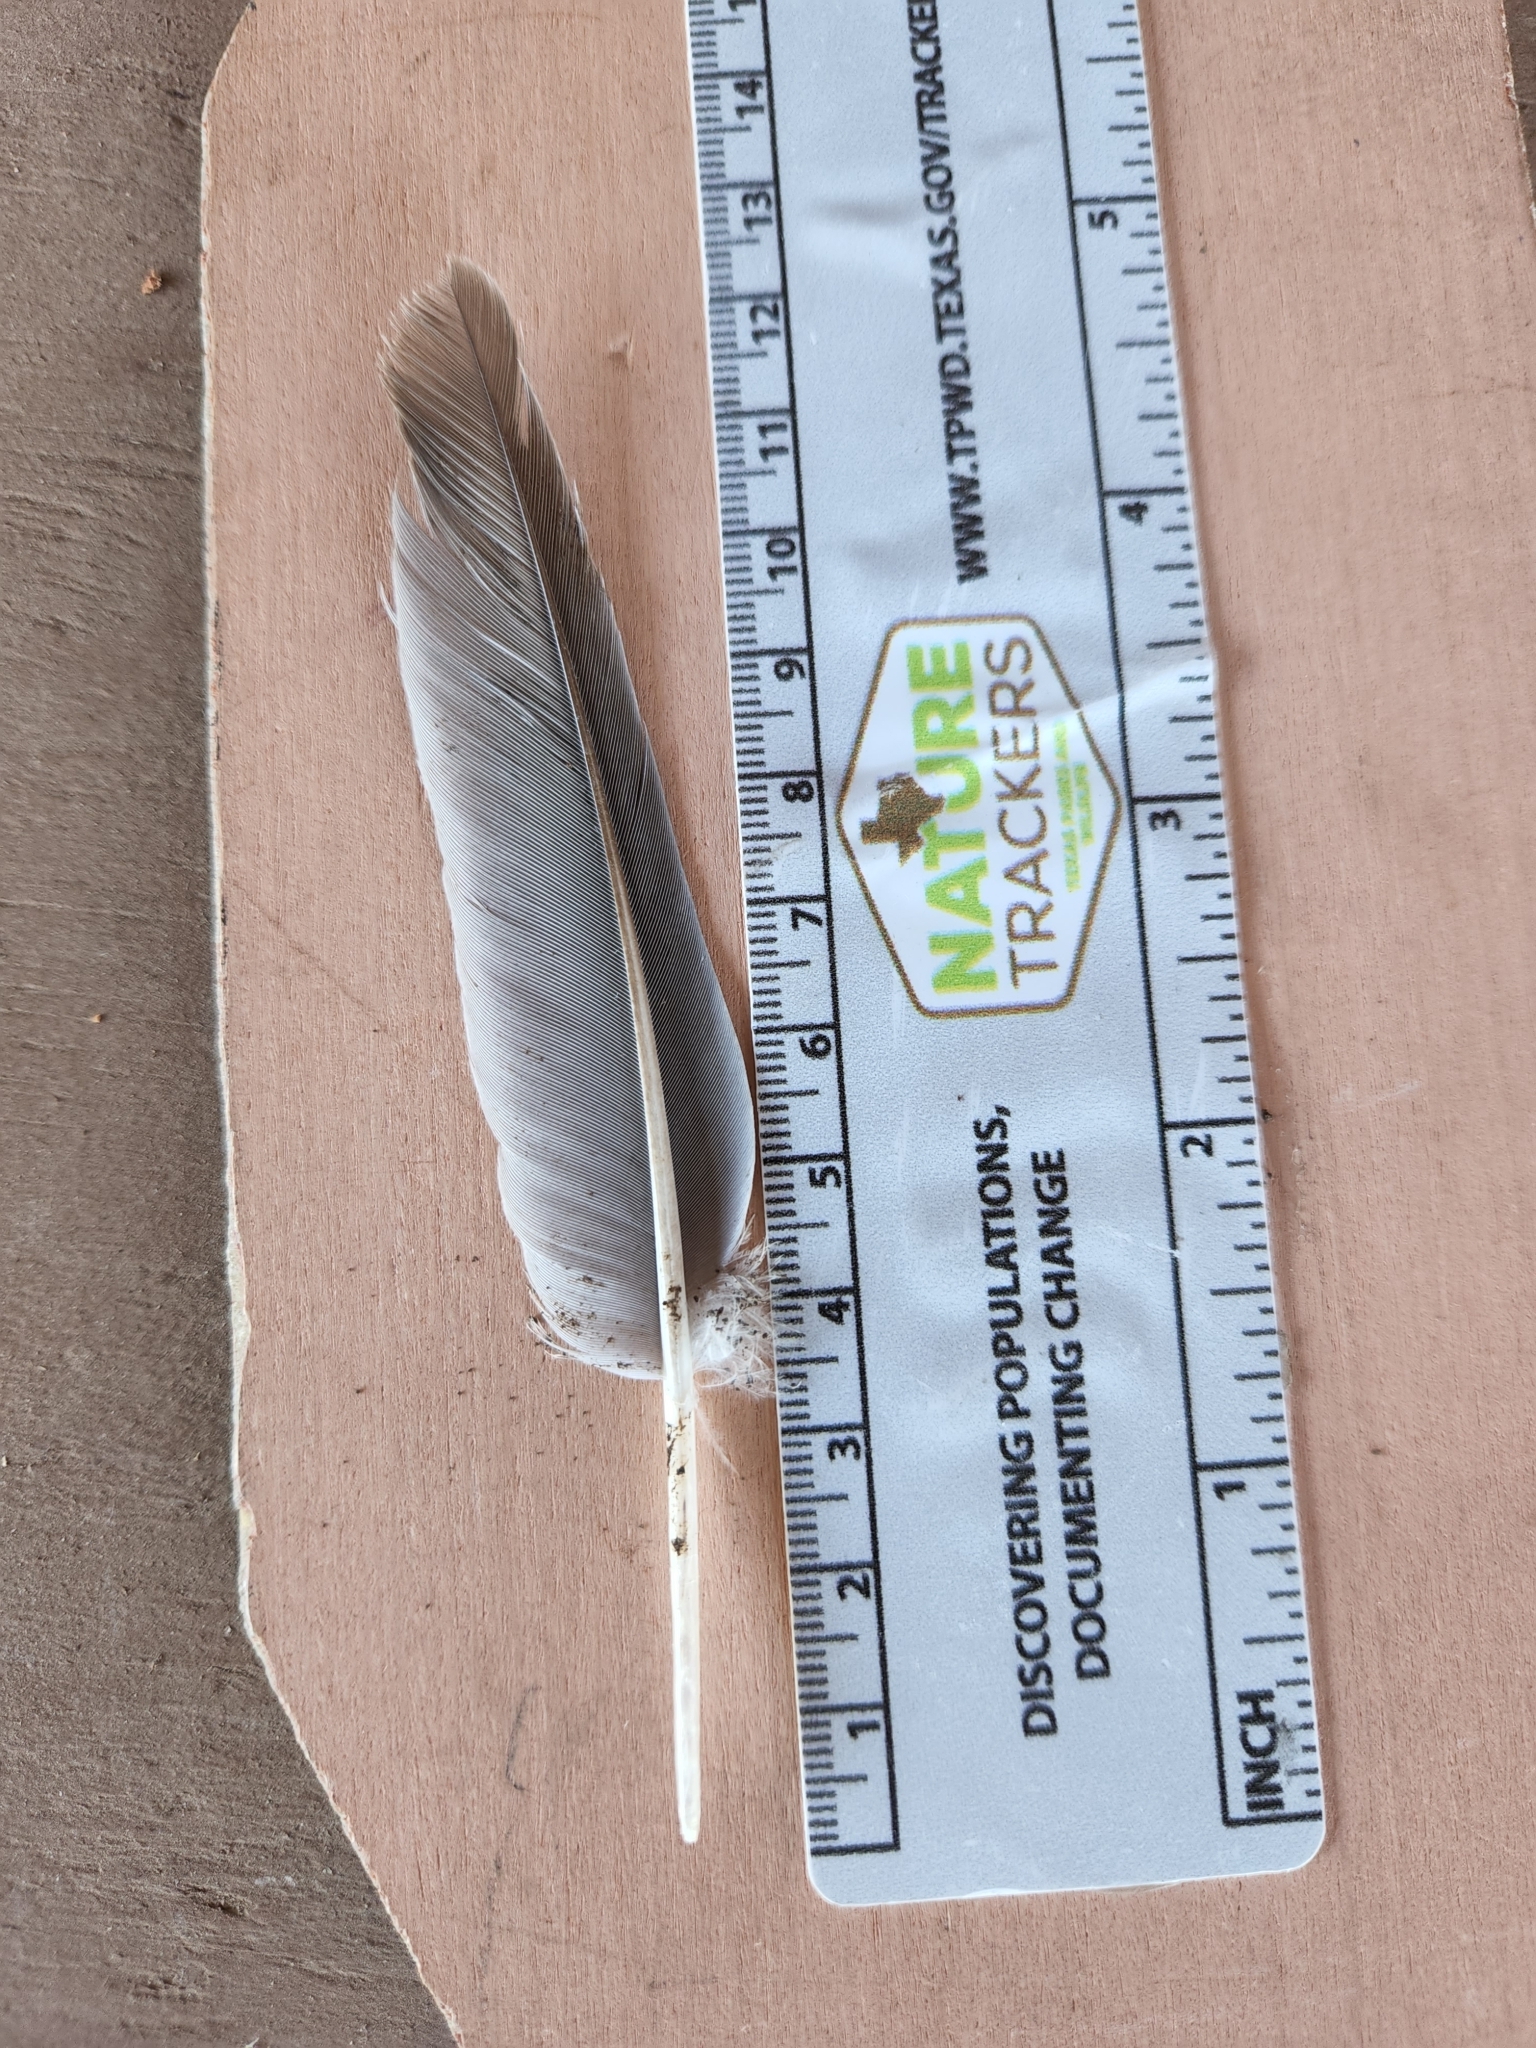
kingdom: Animalia
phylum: Chordata
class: Aves
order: Columbiformes
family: Columbidae
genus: Zenaida
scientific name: Zenaida asiatica
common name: White-winged dove
